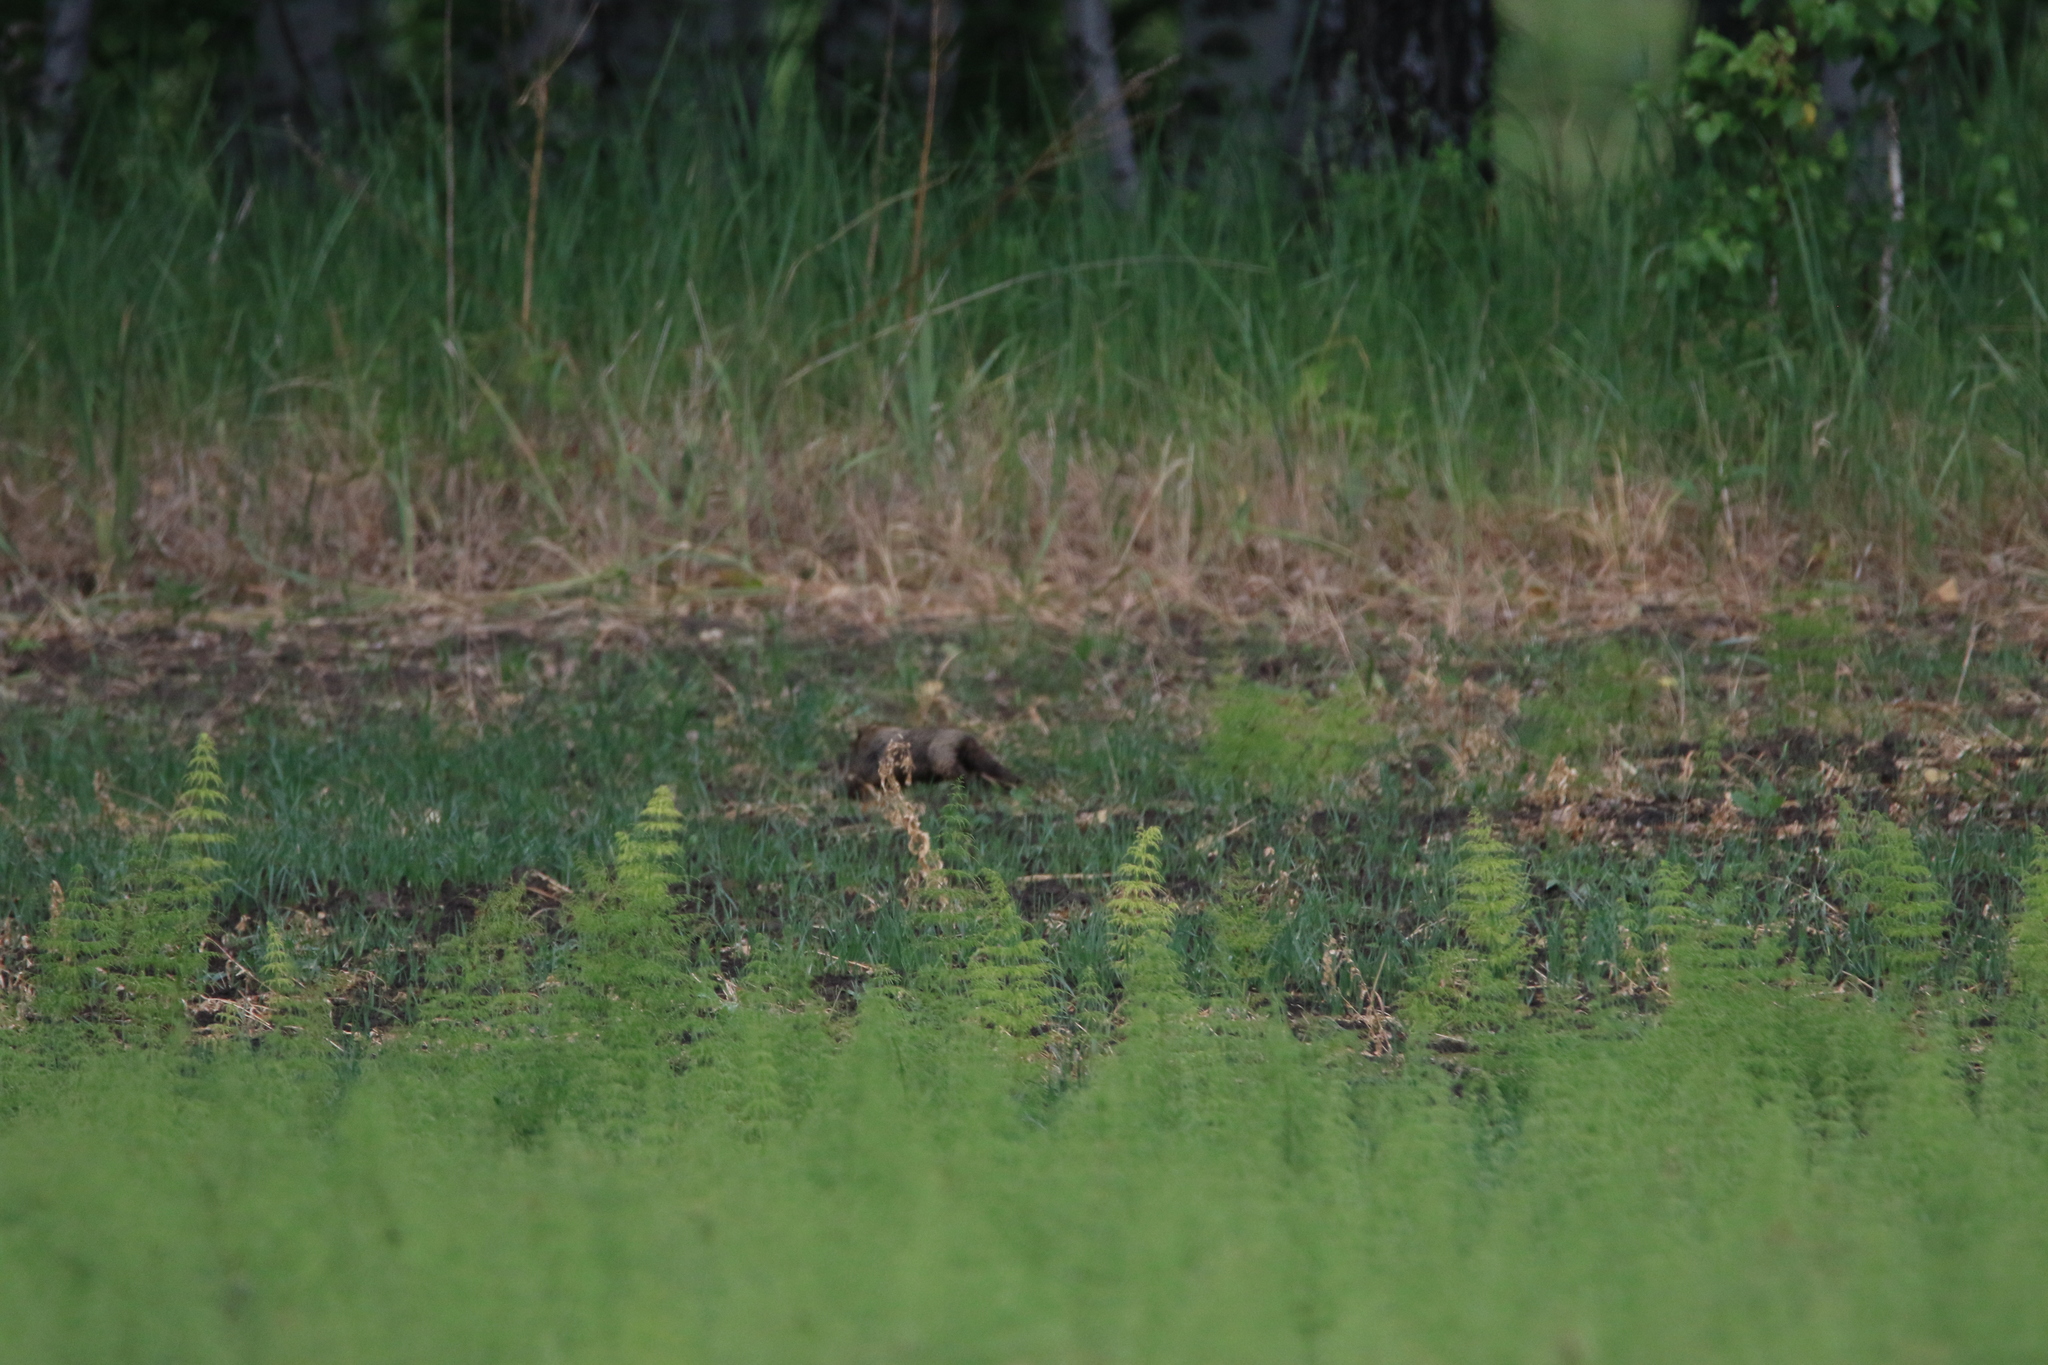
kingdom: Animalia
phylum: Chordata
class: Mammalia
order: Rodentia
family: Sciuridae
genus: Marmota
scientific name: Marmota kastschenkoi
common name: Forest steppe marmot
